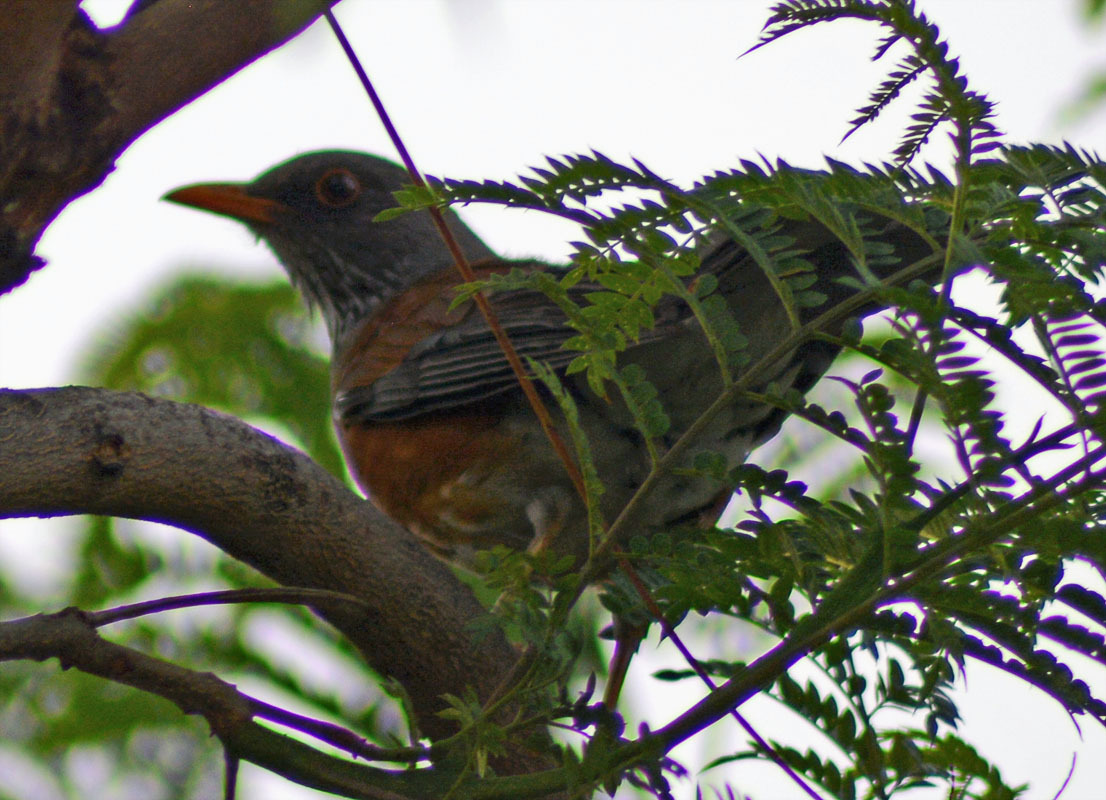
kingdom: Animalia
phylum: Chordata
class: Aves
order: Passeriformes
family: Turdidae
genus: Turdus
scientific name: Turdus rufopalliatus
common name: Rufous-backed robin
